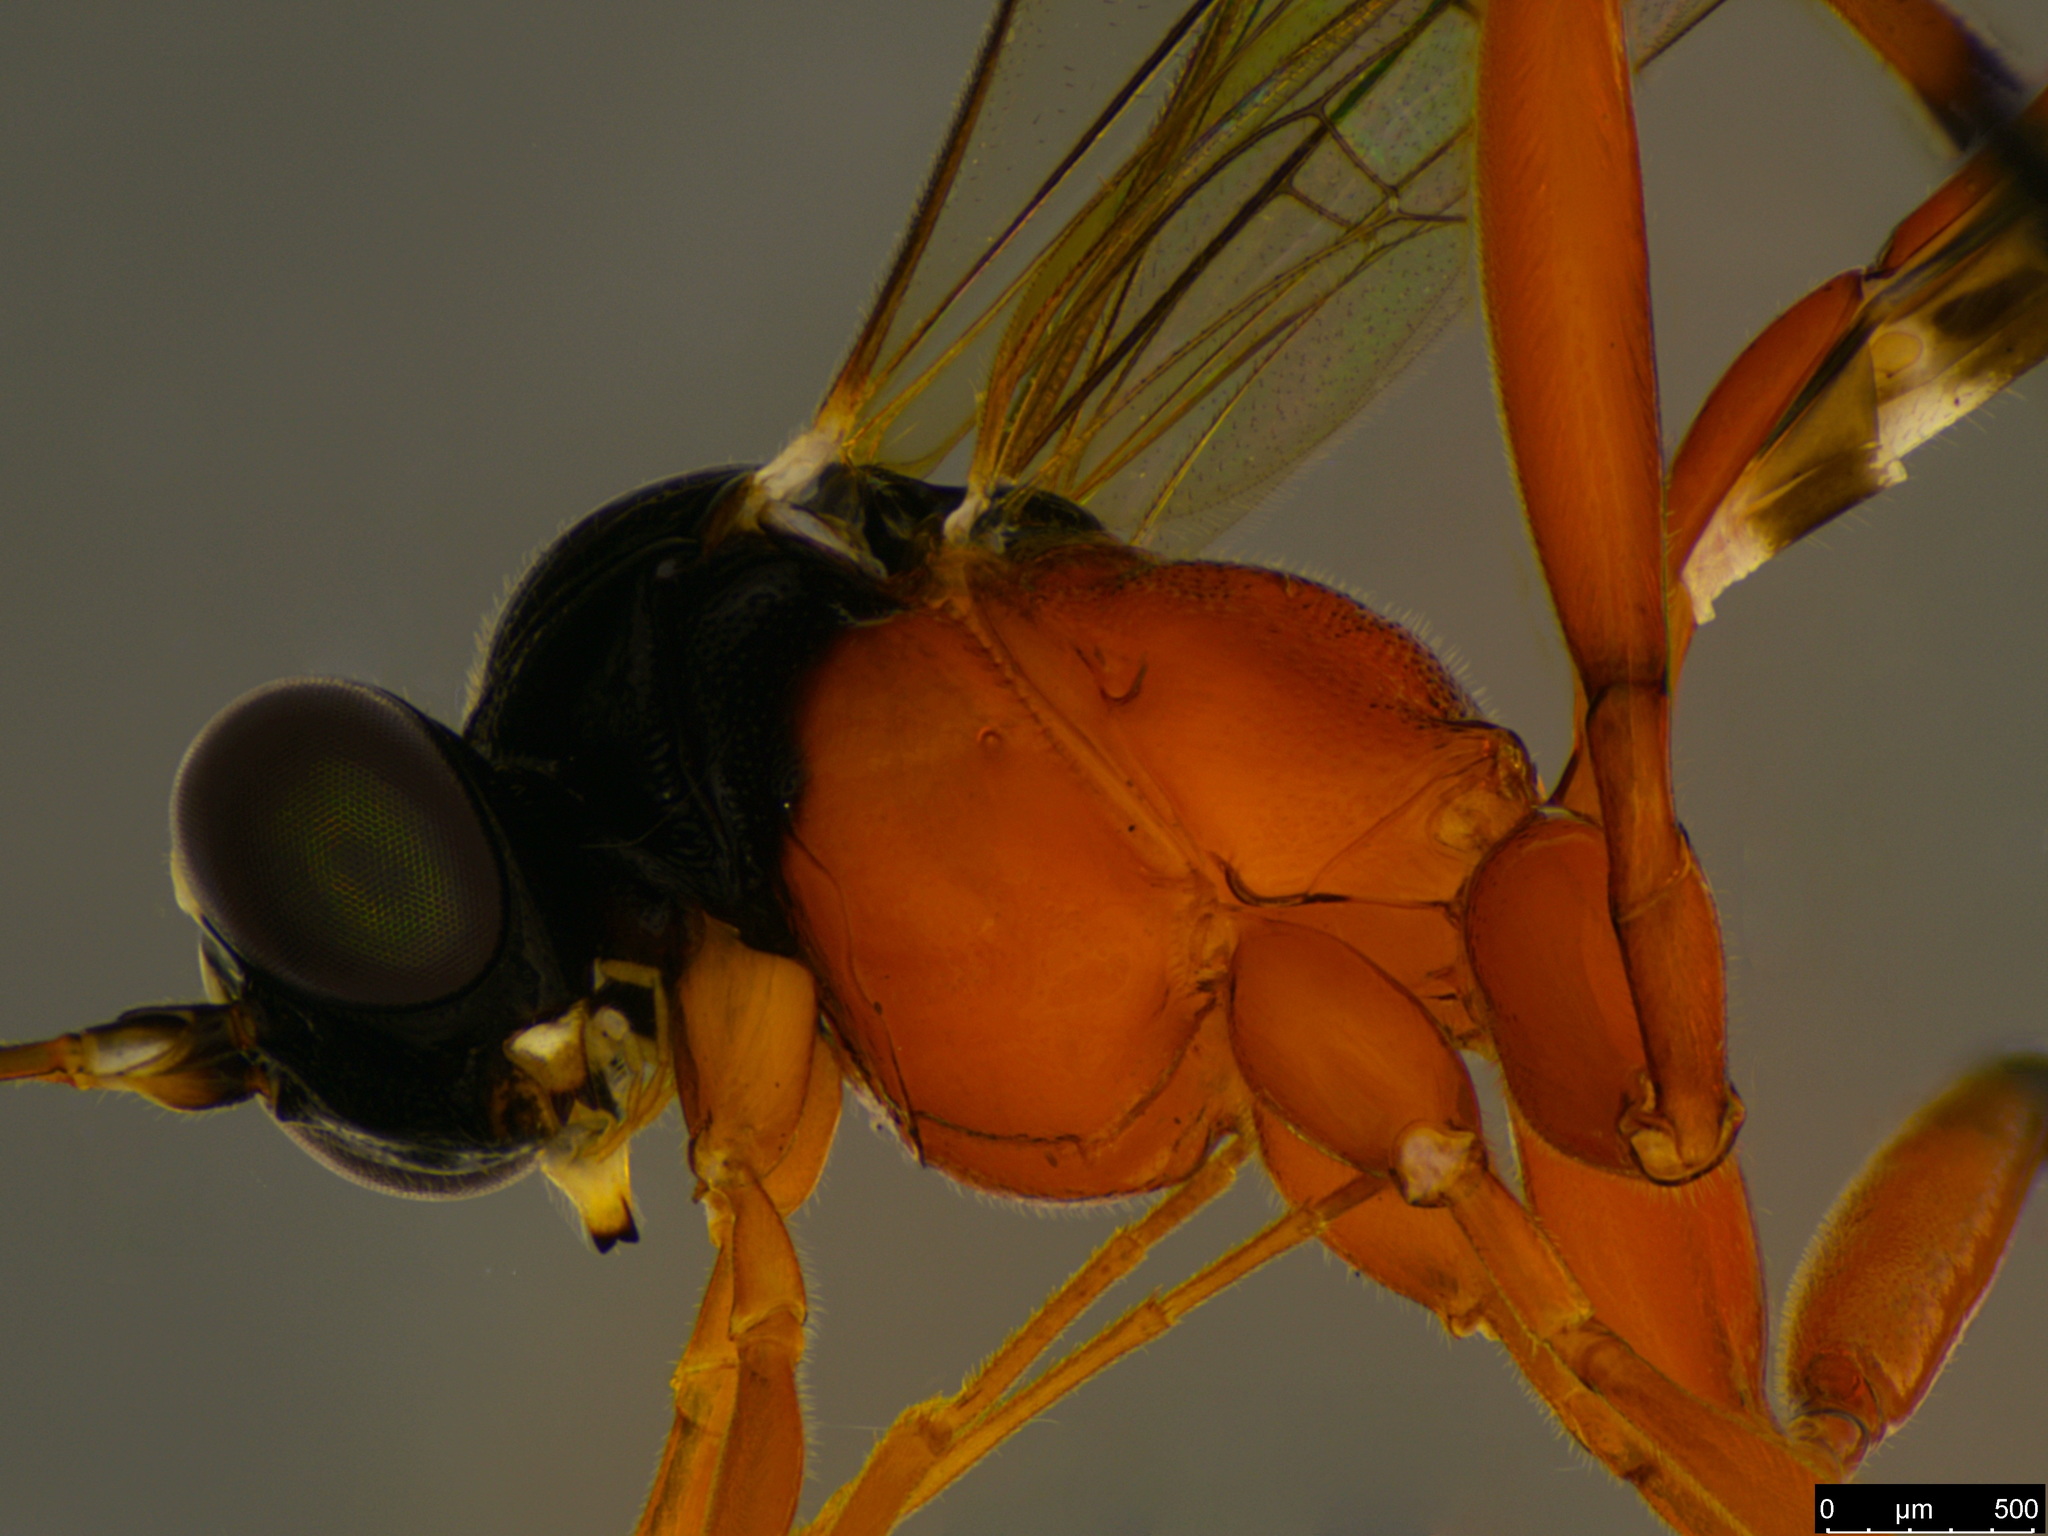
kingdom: Animalia
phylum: Arthropoda
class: Insecta
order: Hymenoptera
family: Ichneumonidae
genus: Leptobatopsis
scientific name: Leptobatopsis mesominiata
